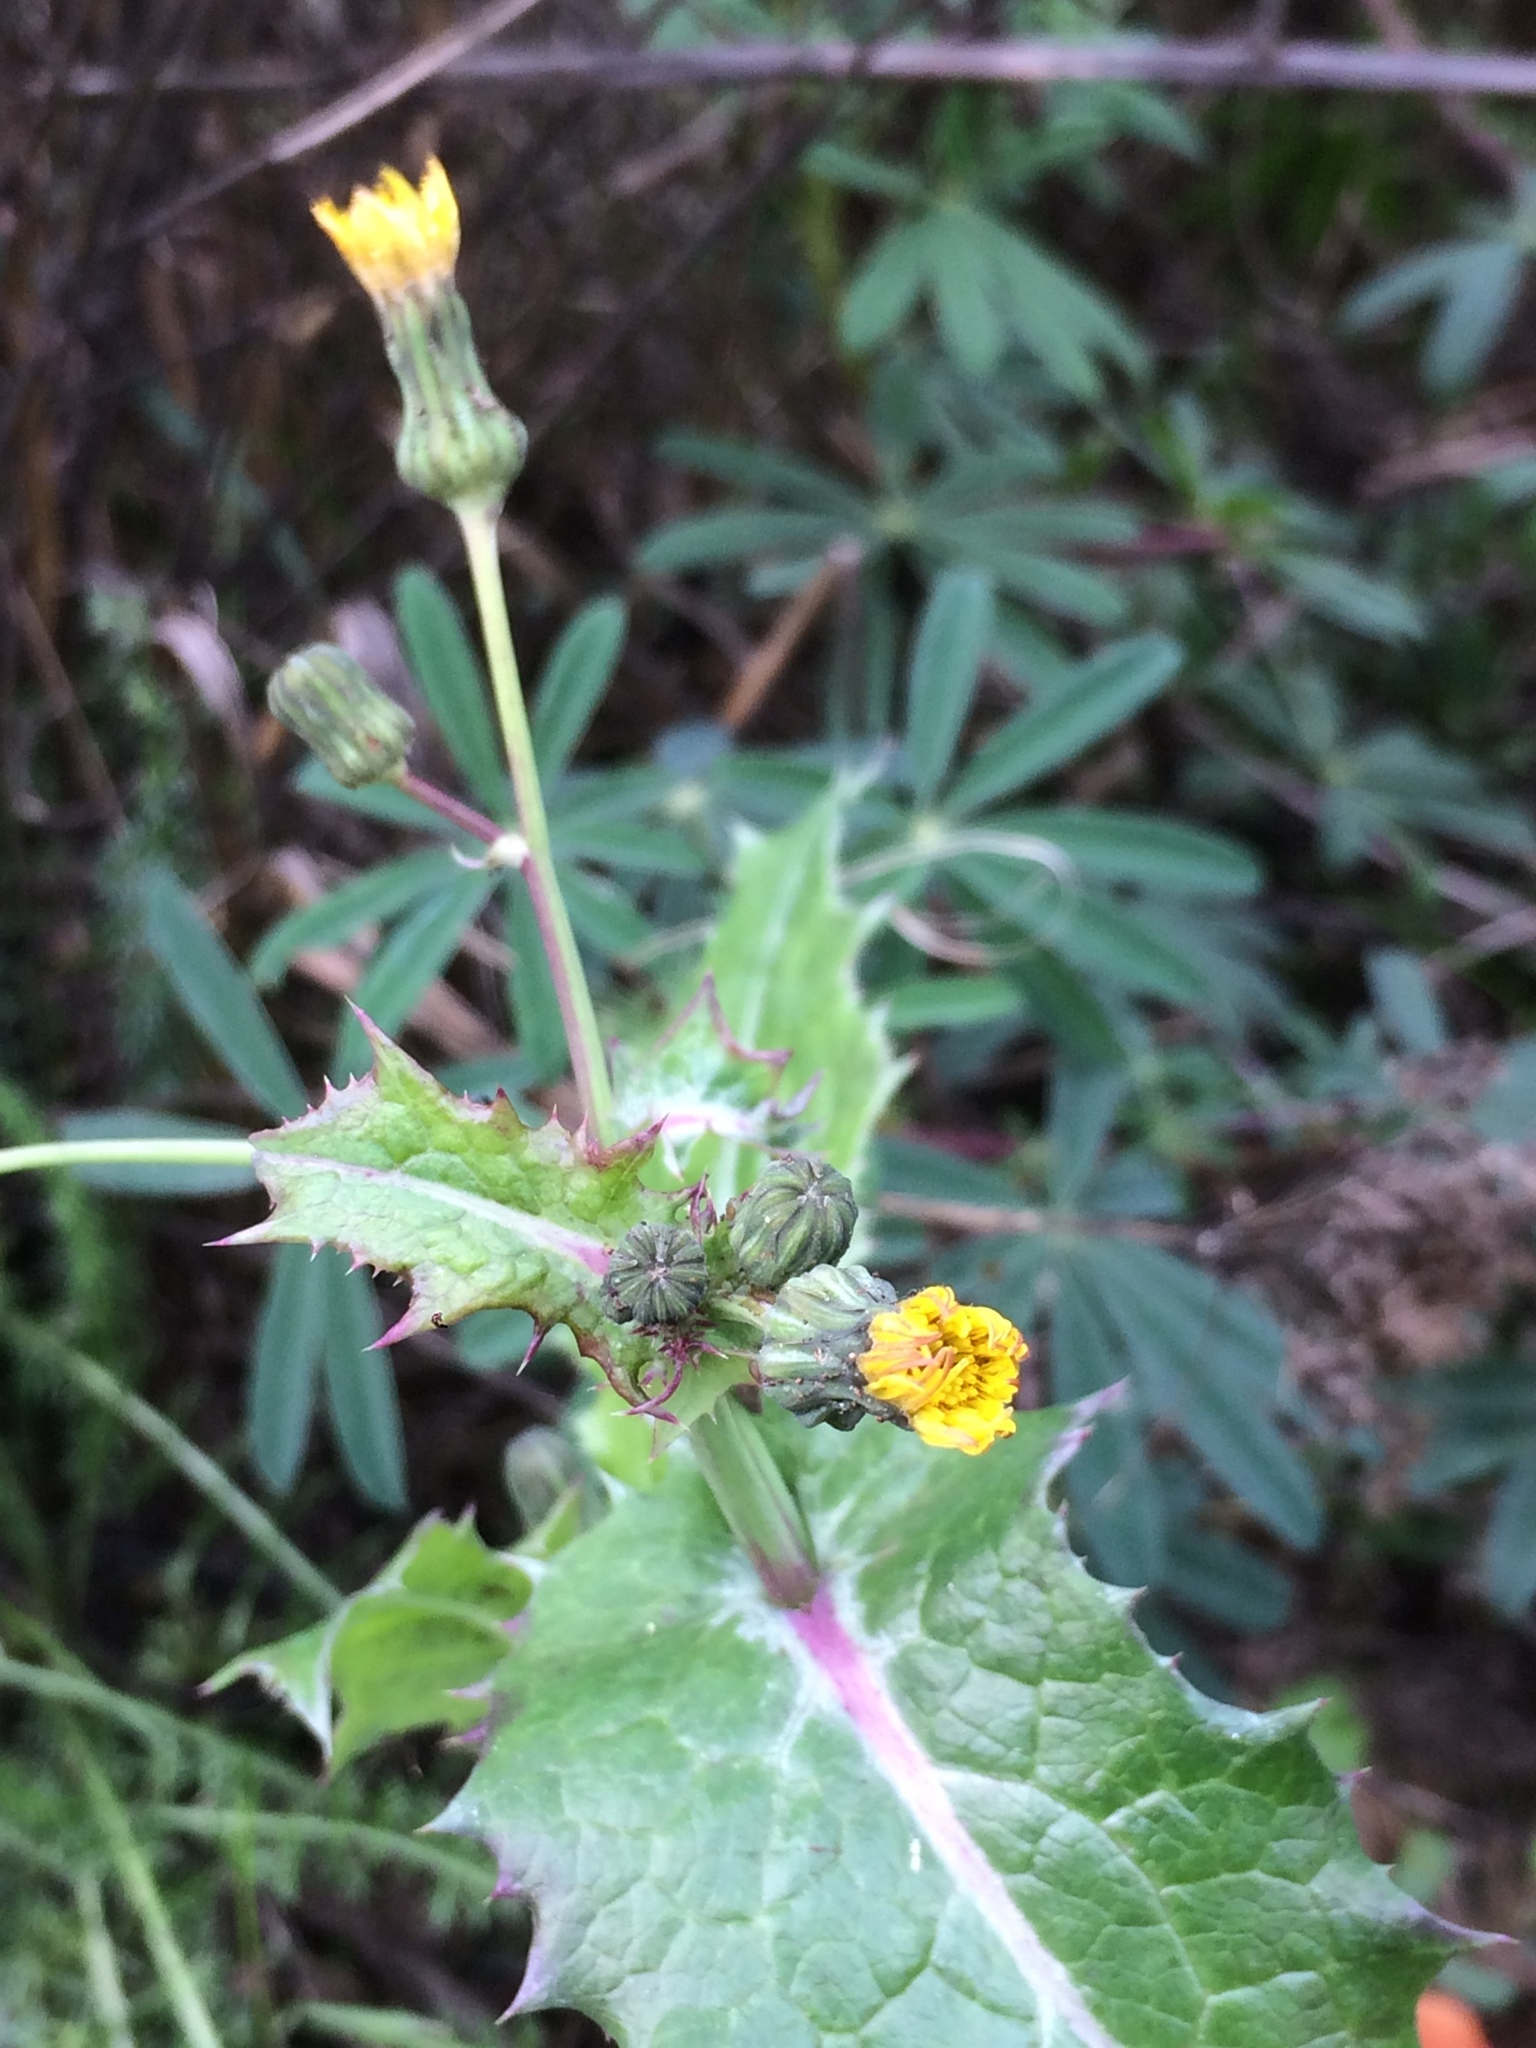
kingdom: Plantae
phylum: Tracheophyta
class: Magnoliopsida
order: Asterales
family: Asteraceae
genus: Sonchus
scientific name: Sonchus asper
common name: Prickly sow-thistle
